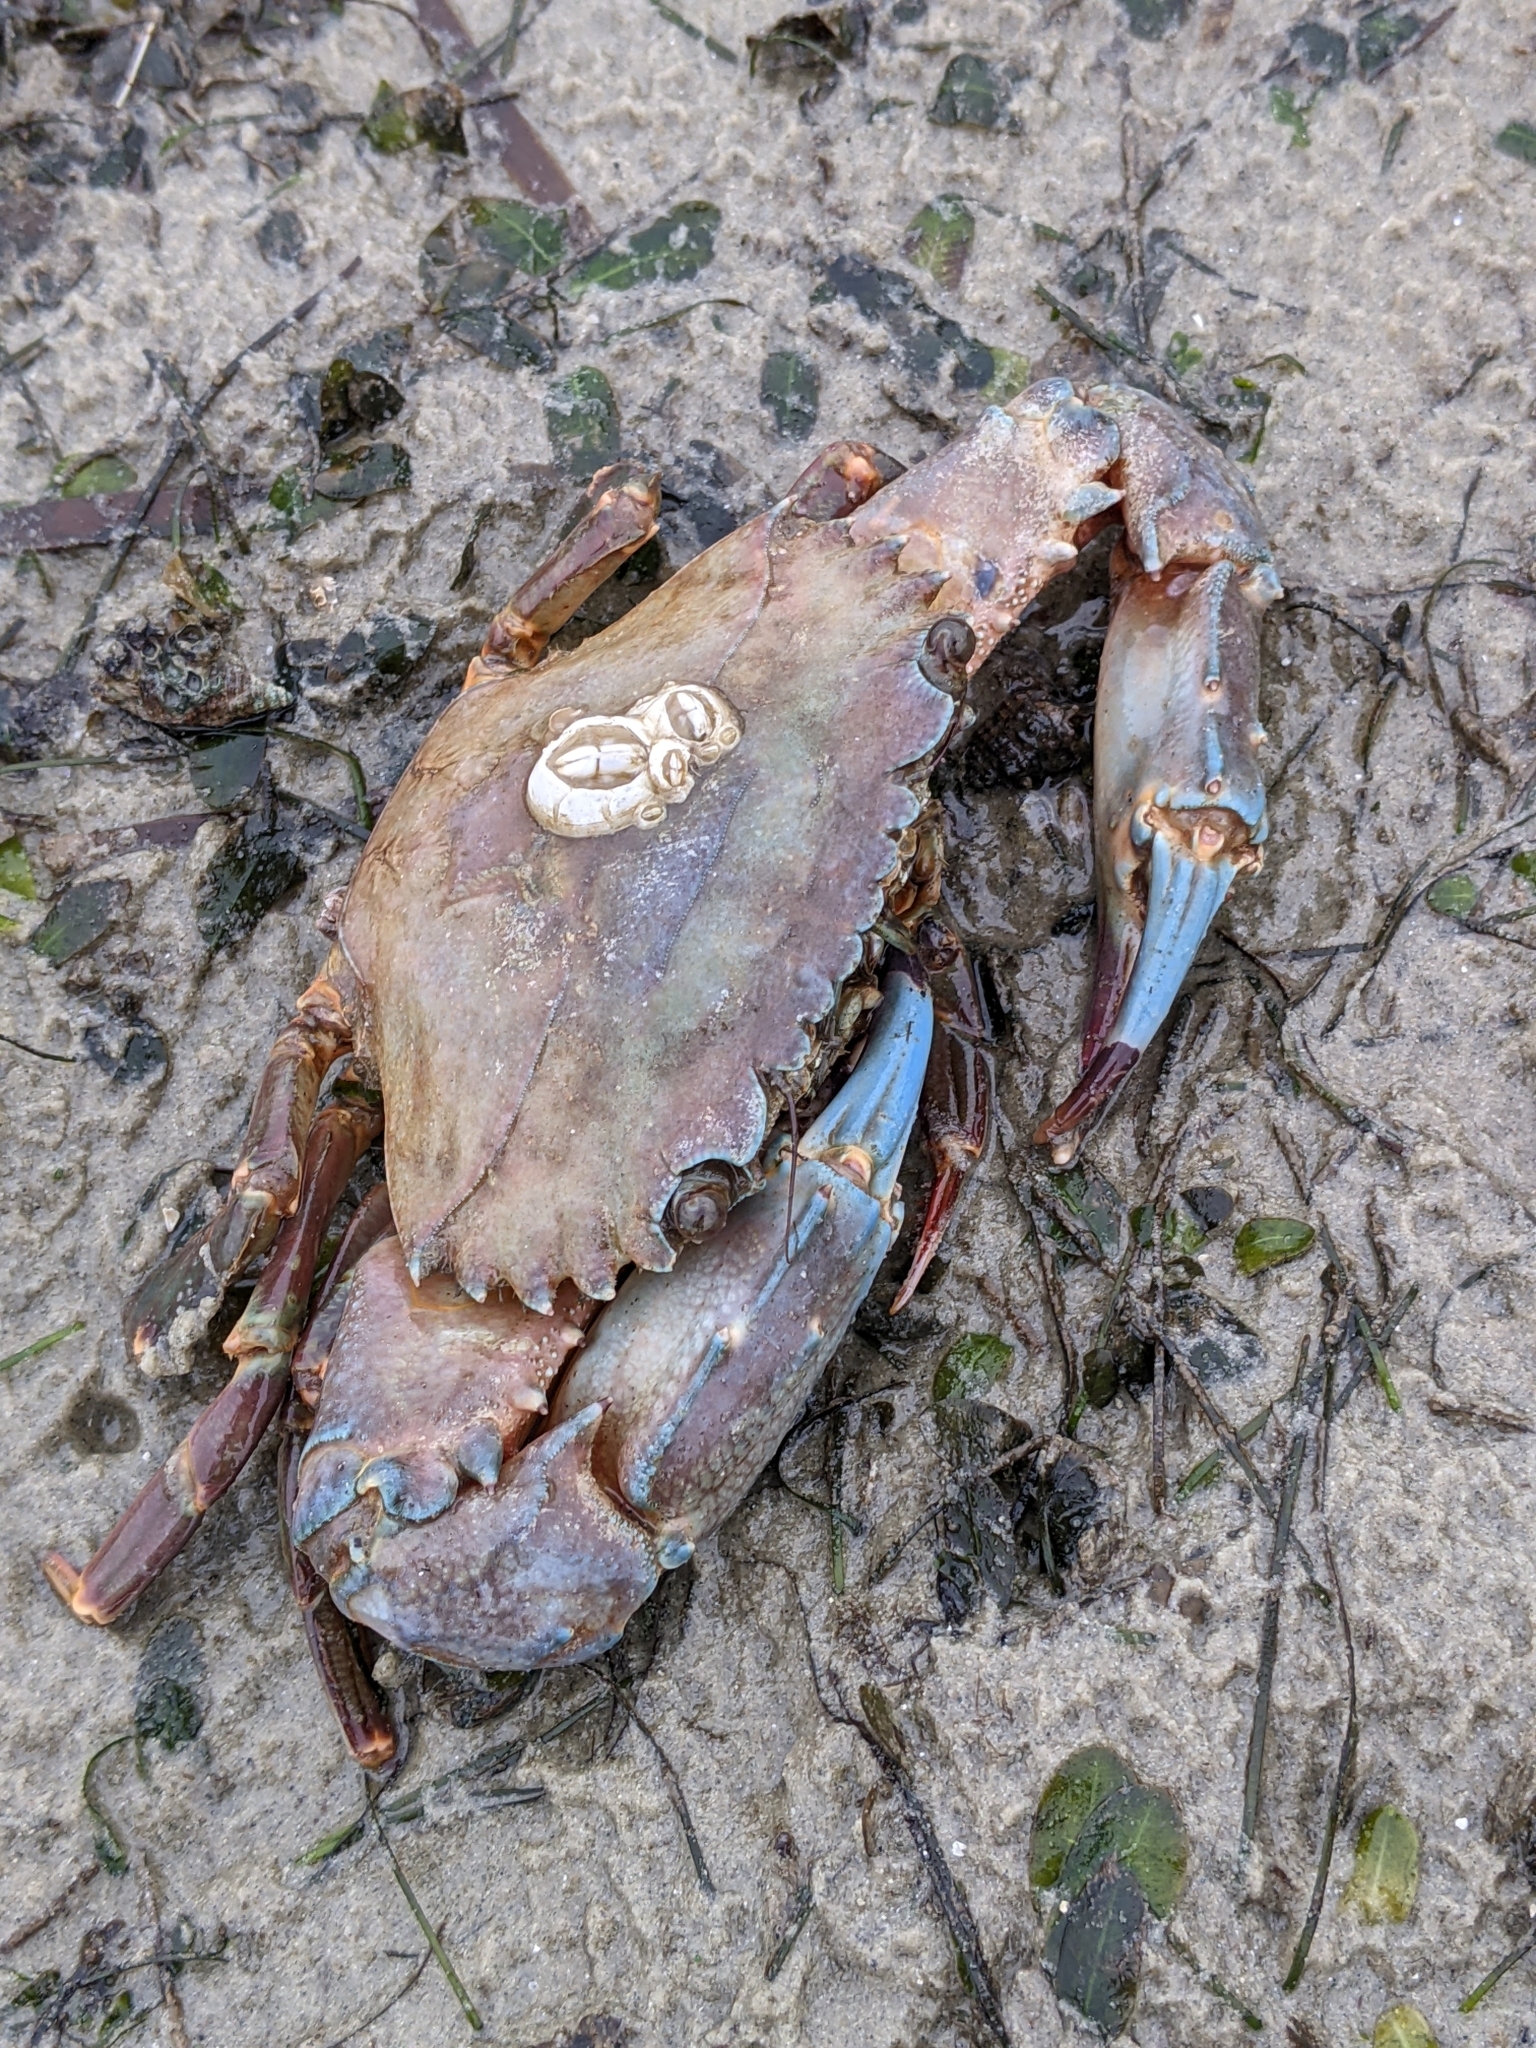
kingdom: Animalia
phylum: Arthropoda
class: Malacostraca
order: Decapoda
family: Portunidae
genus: Thalamita
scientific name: Thalamita crenata
